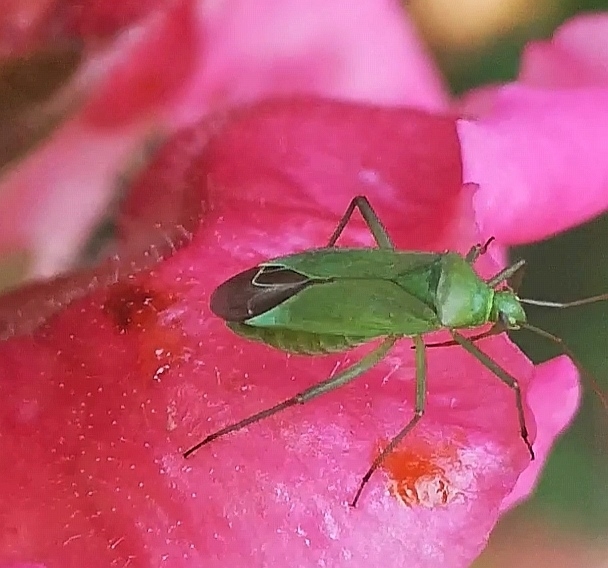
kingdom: Animalia
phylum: Arthropoda
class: Insecta
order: Hemiptera
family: Miridae
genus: Calocoris
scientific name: Calocoris affinis
